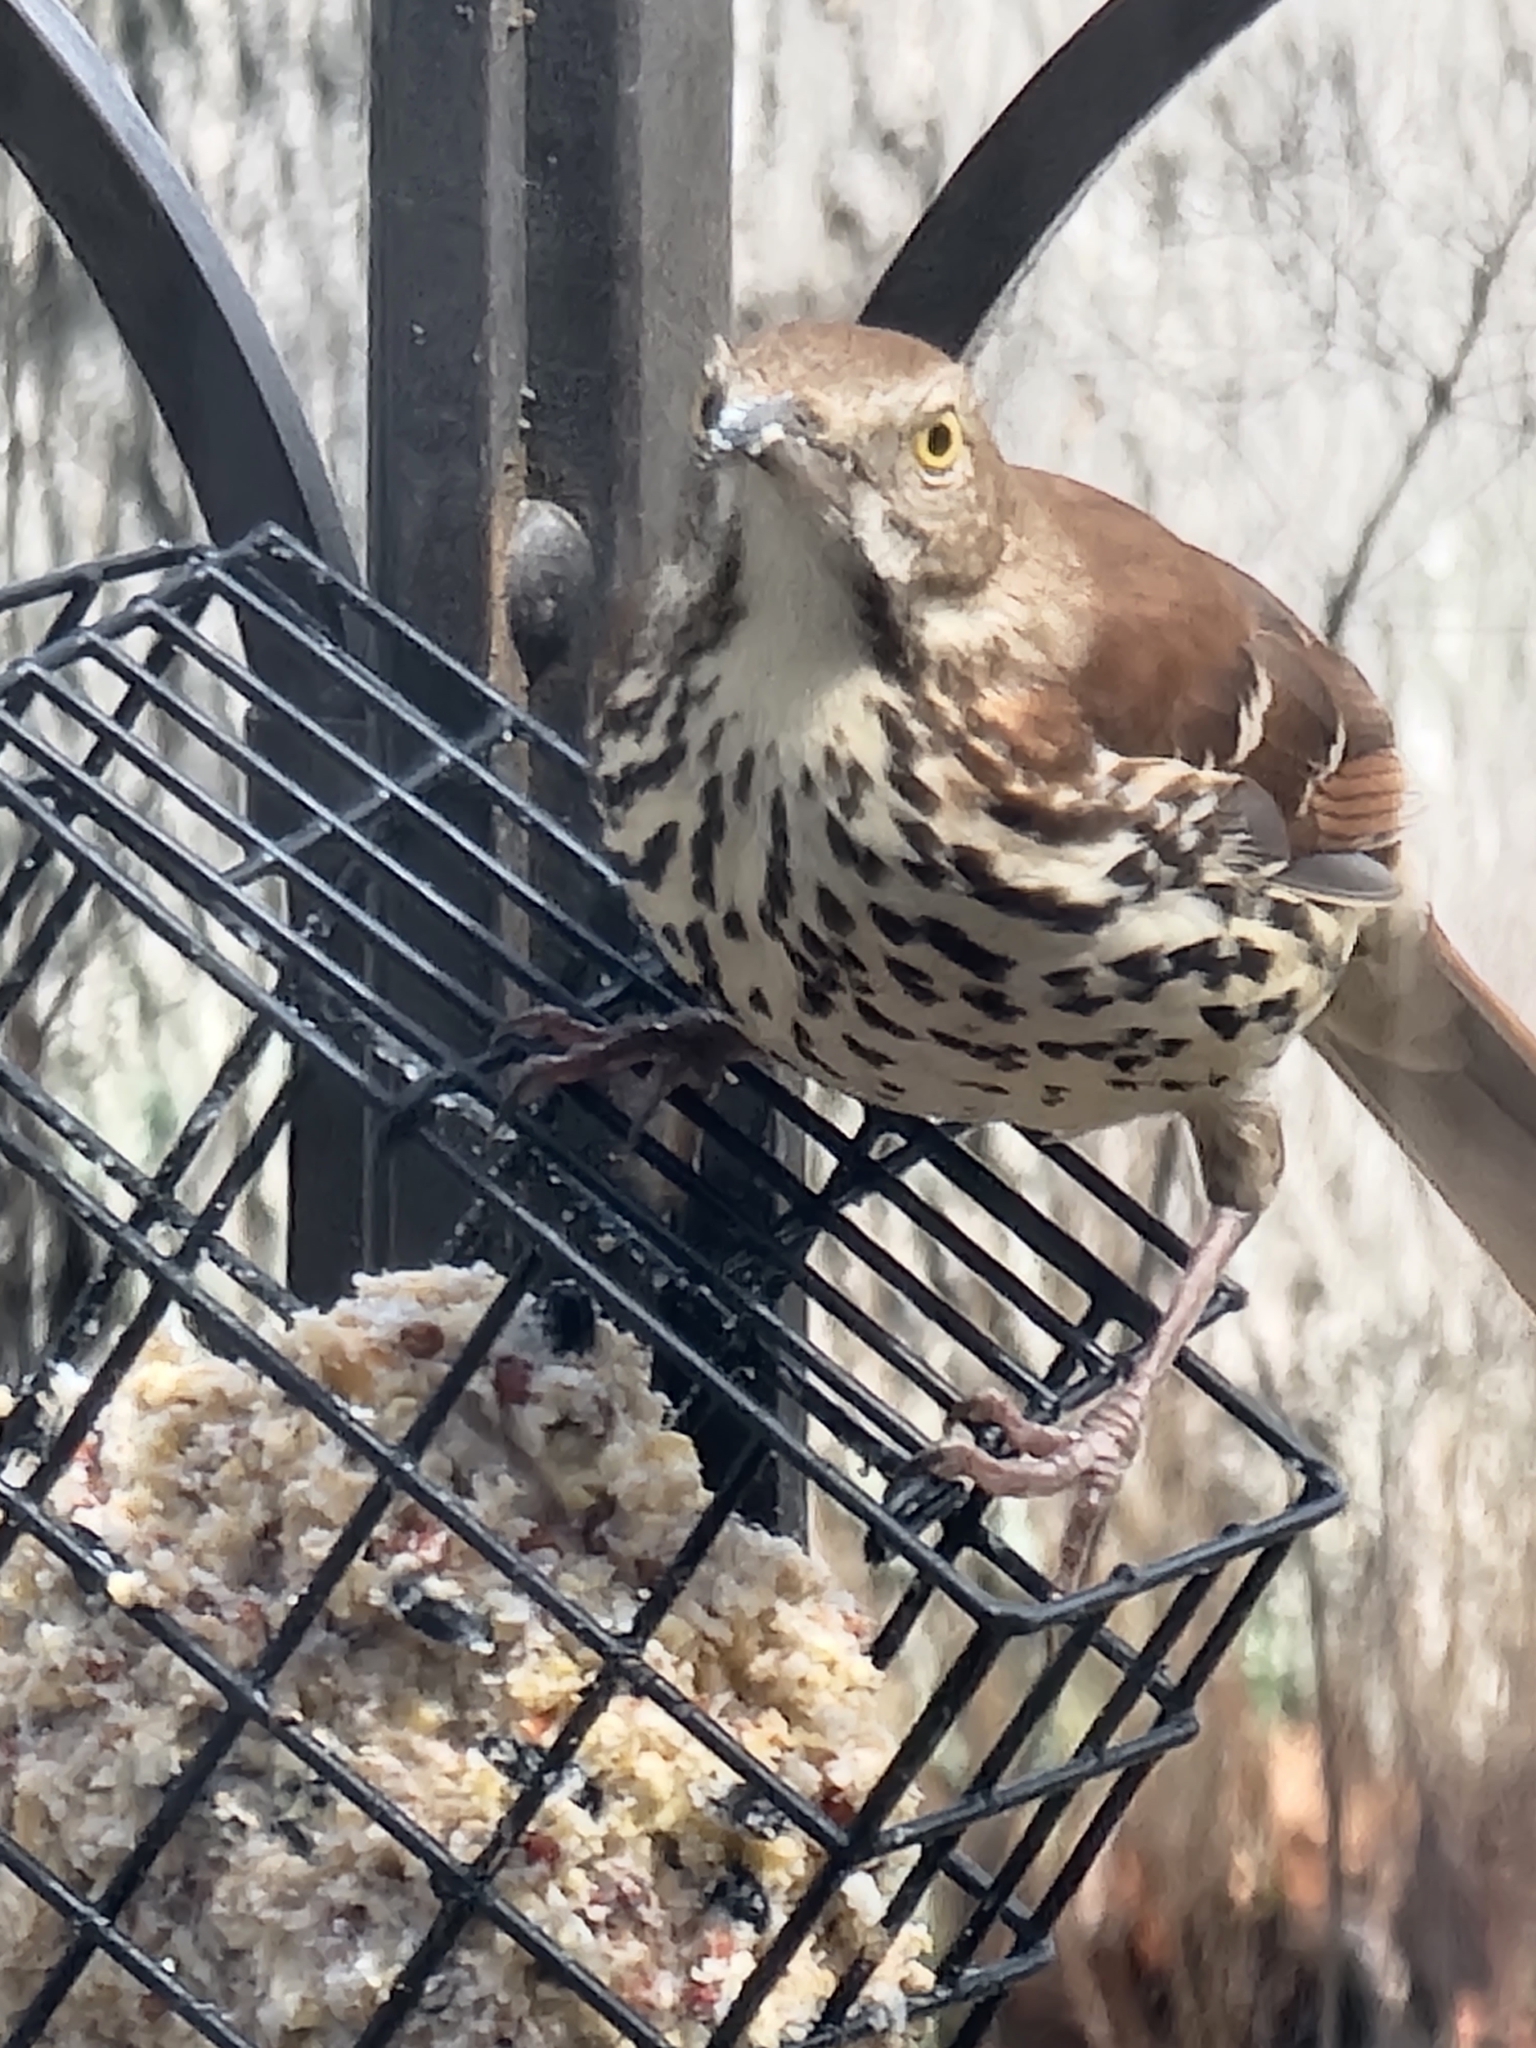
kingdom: Animalia
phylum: Chordata
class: Aves
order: Passeriformes
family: Mimidae
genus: Toxostoma
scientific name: Toxostoma rufum
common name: Brown thrasher
